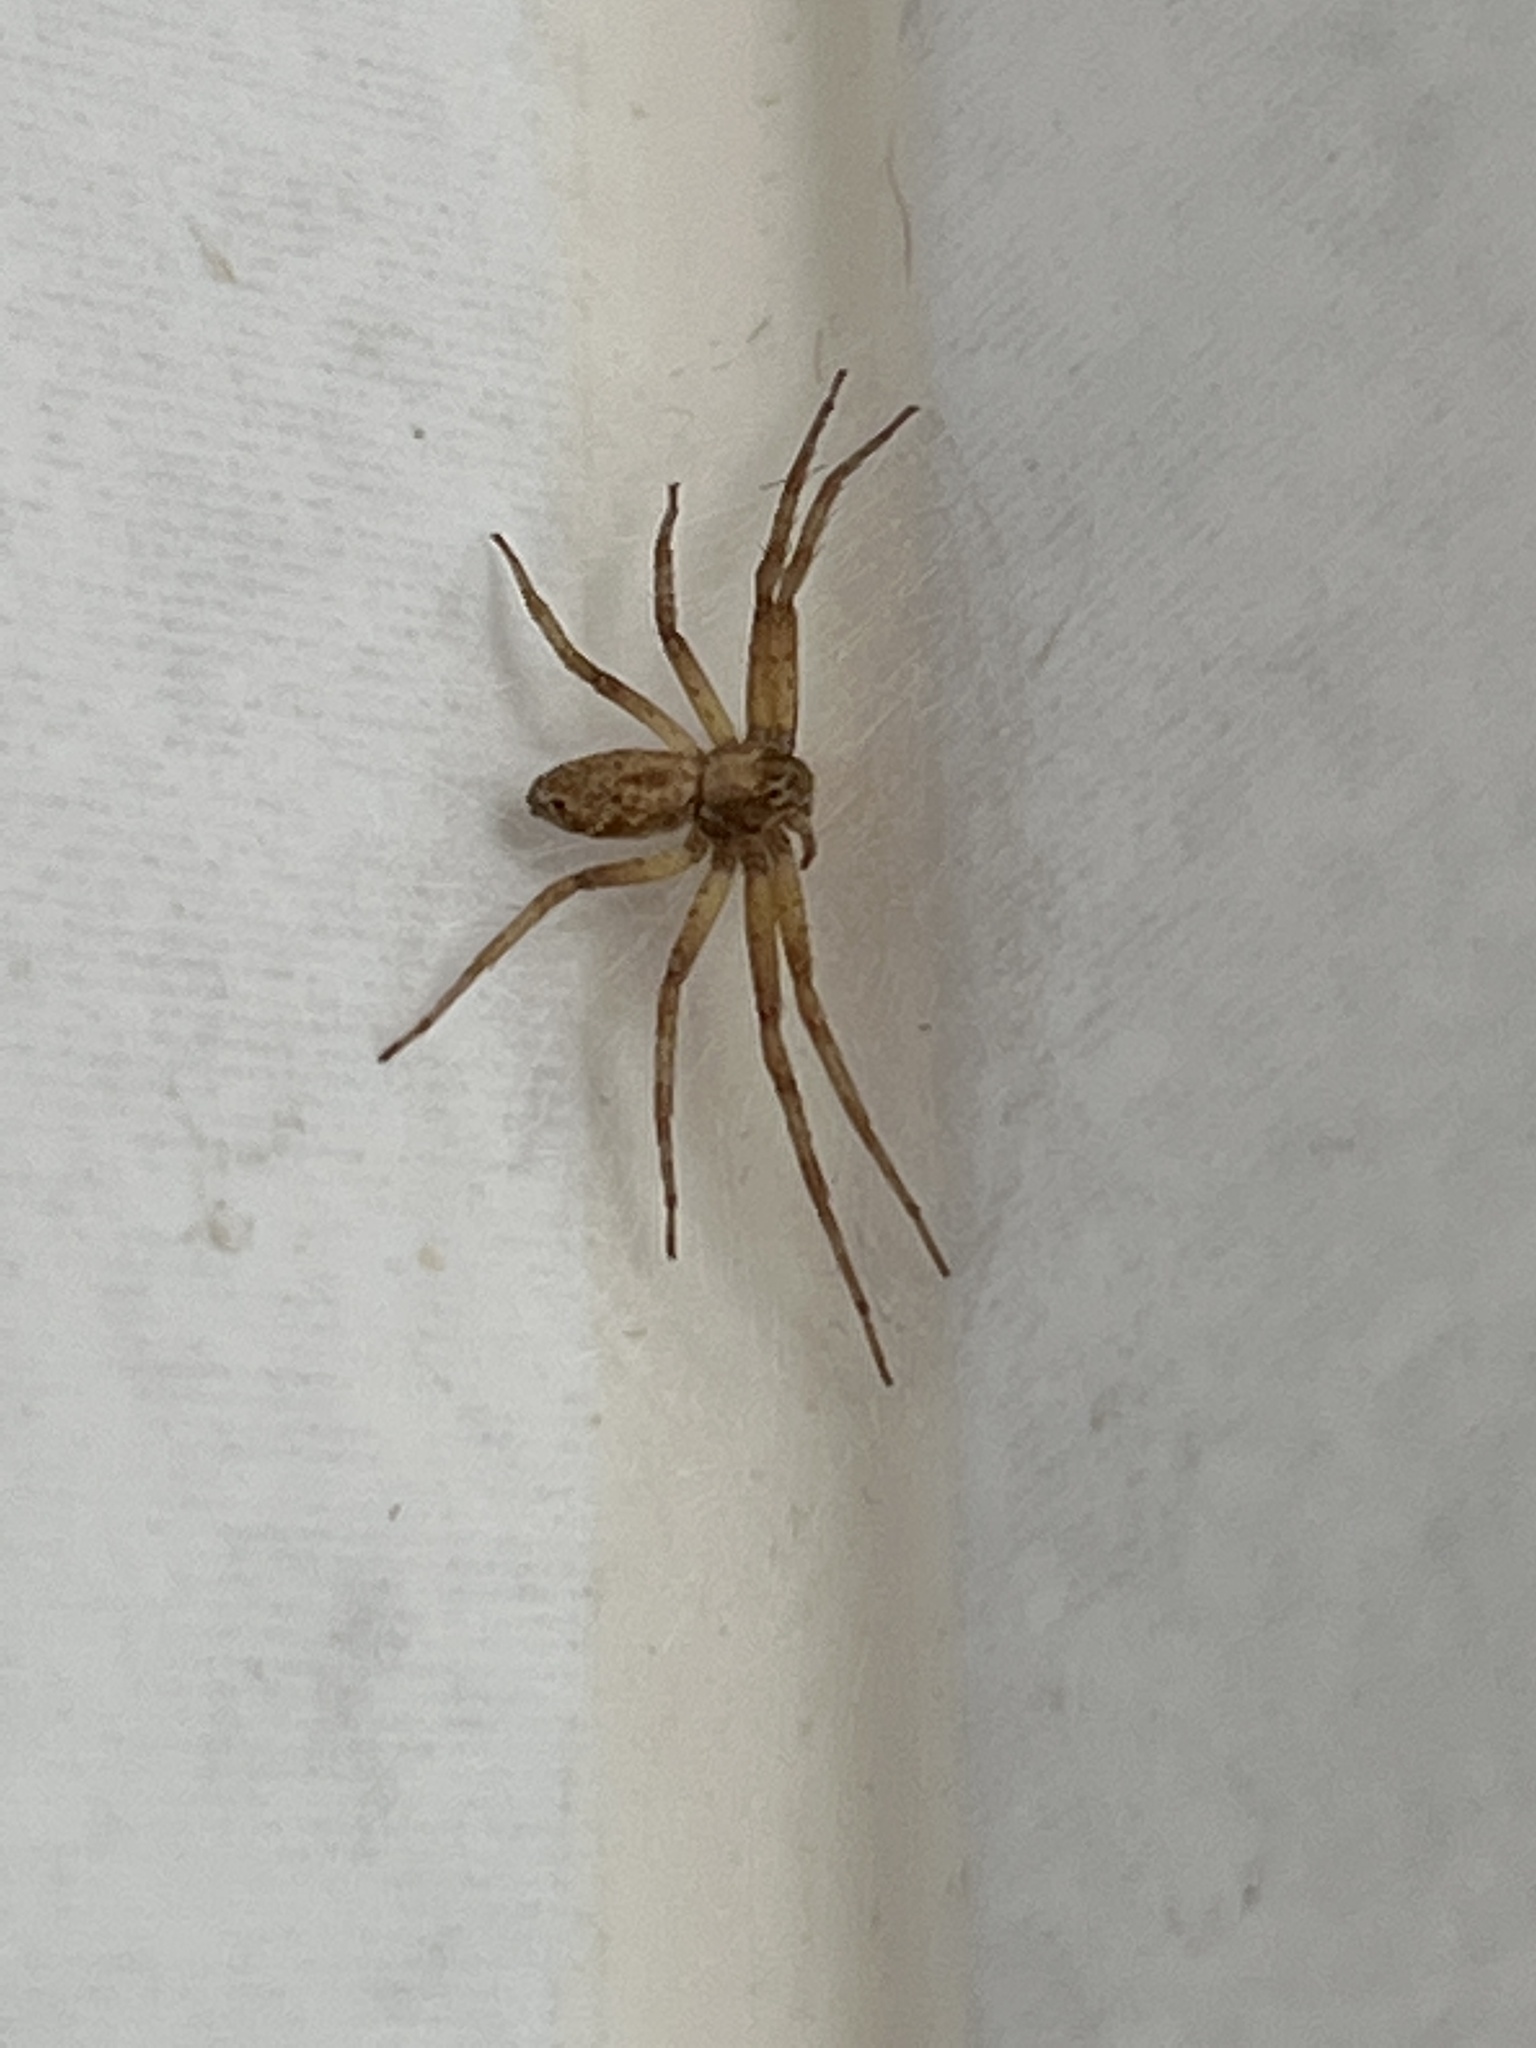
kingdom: Animalia
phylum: Arthropoda
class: Arachnida
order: Araneae
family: Philodromidae
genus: Philodromus
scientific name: Philodromus
